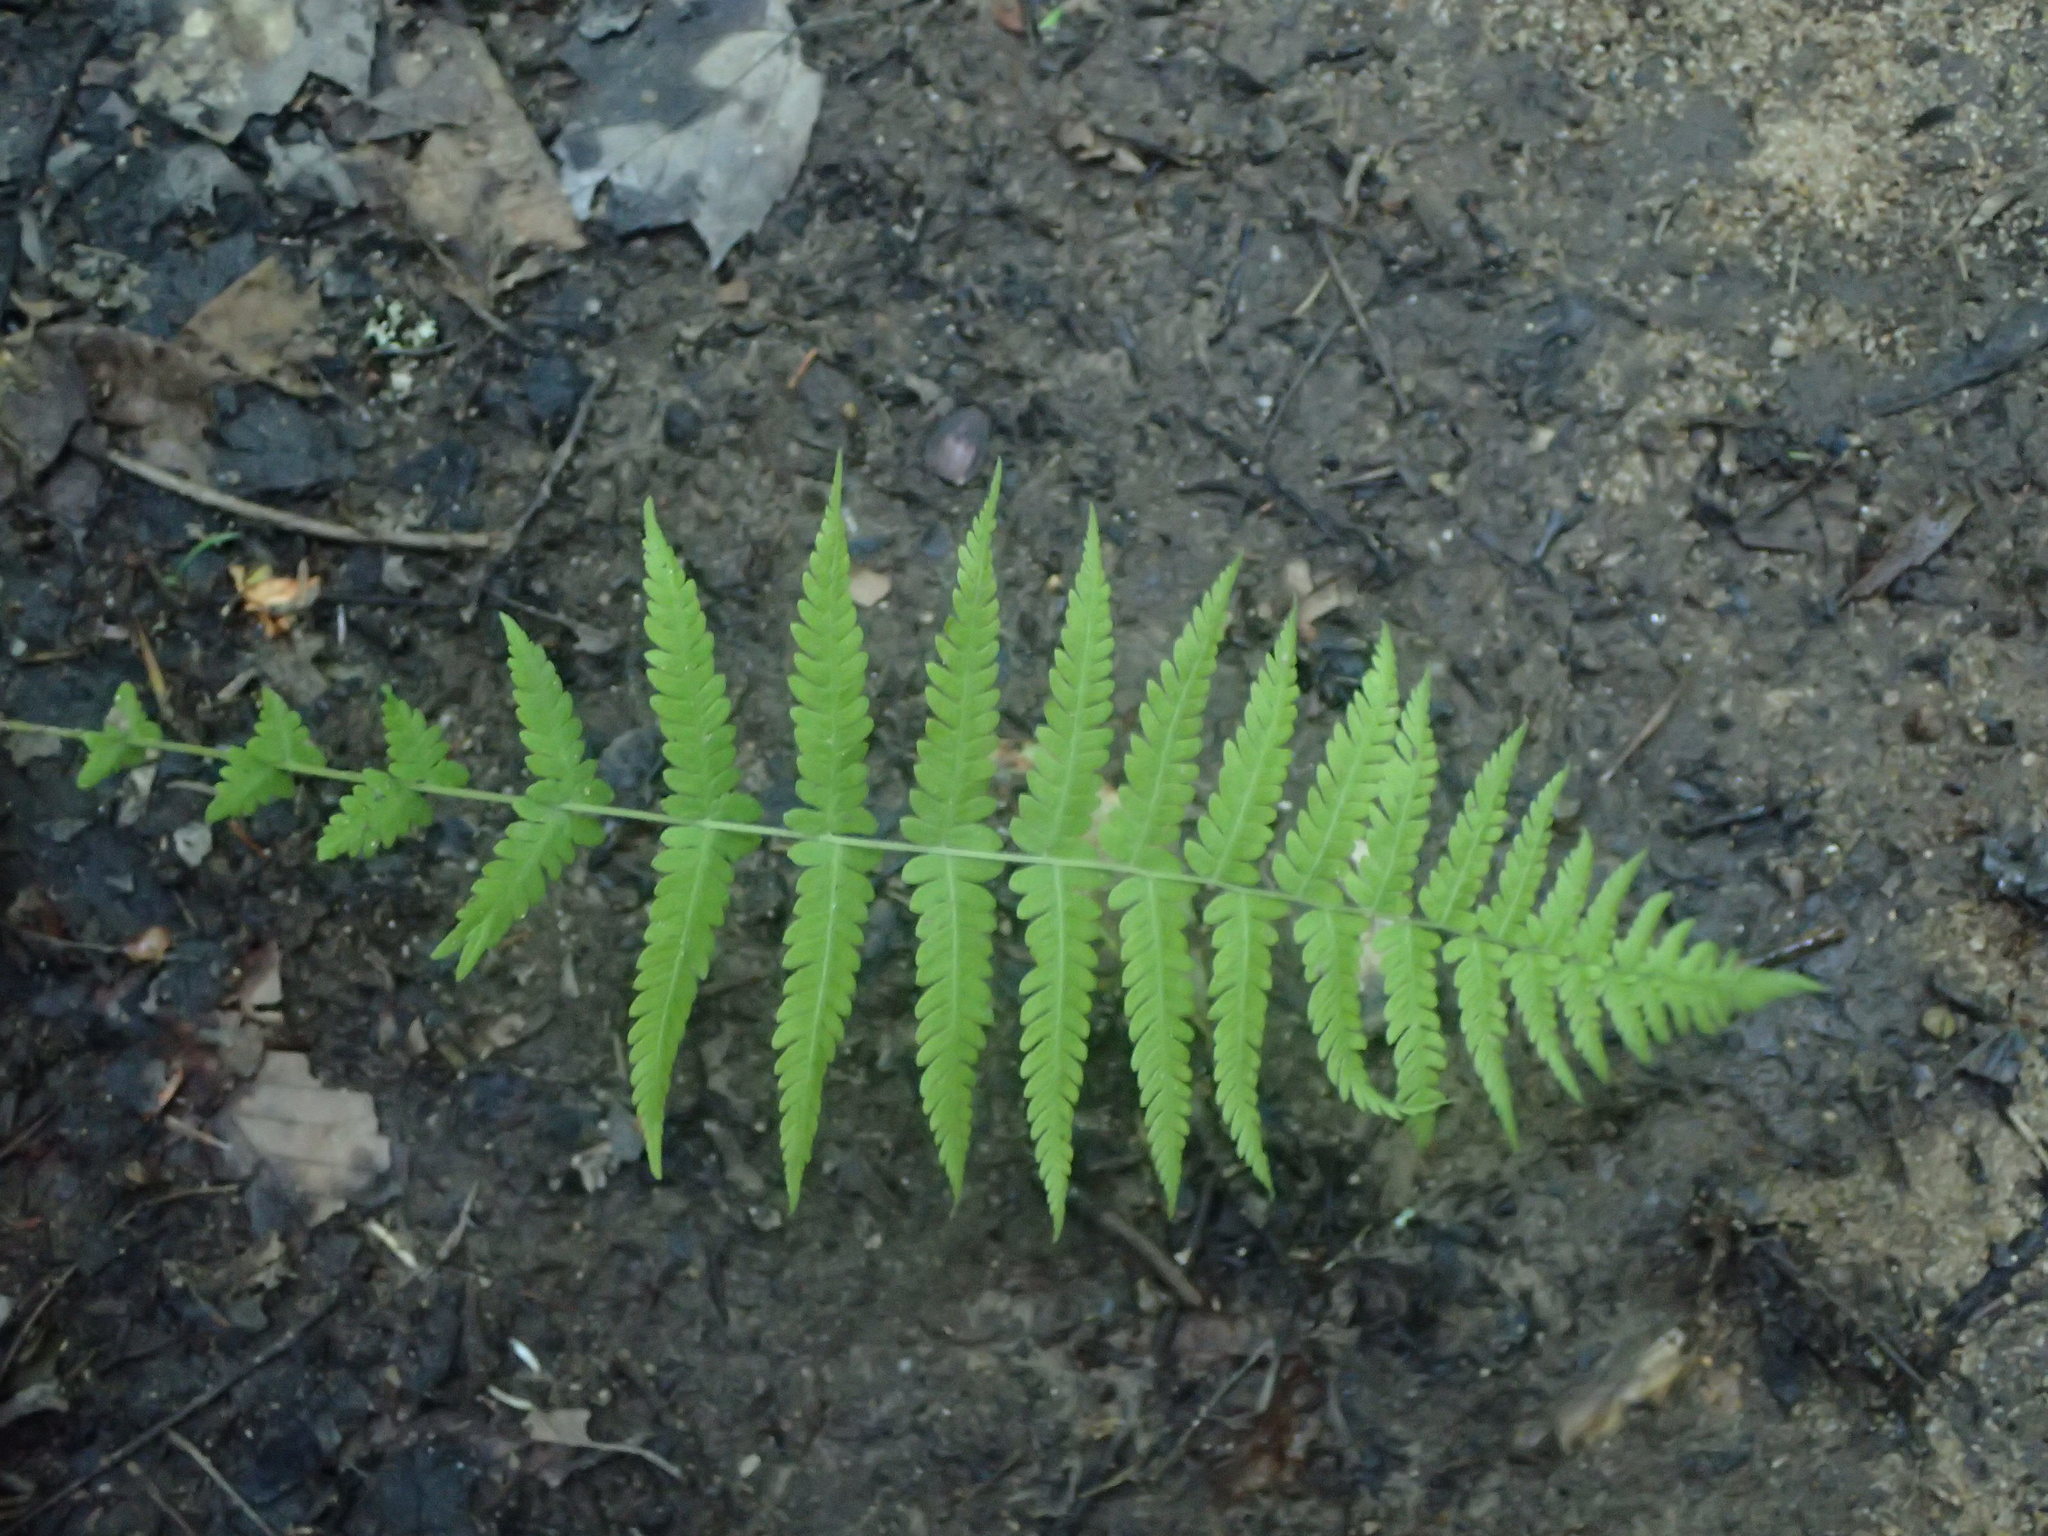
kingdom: Plantae
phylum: Tracheophyta
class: Polypodiopsida
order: Polypodiales
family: Thelypteridaceae
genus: Amauropelta
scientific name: Amauropelta noveboracensis
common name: New york fern
